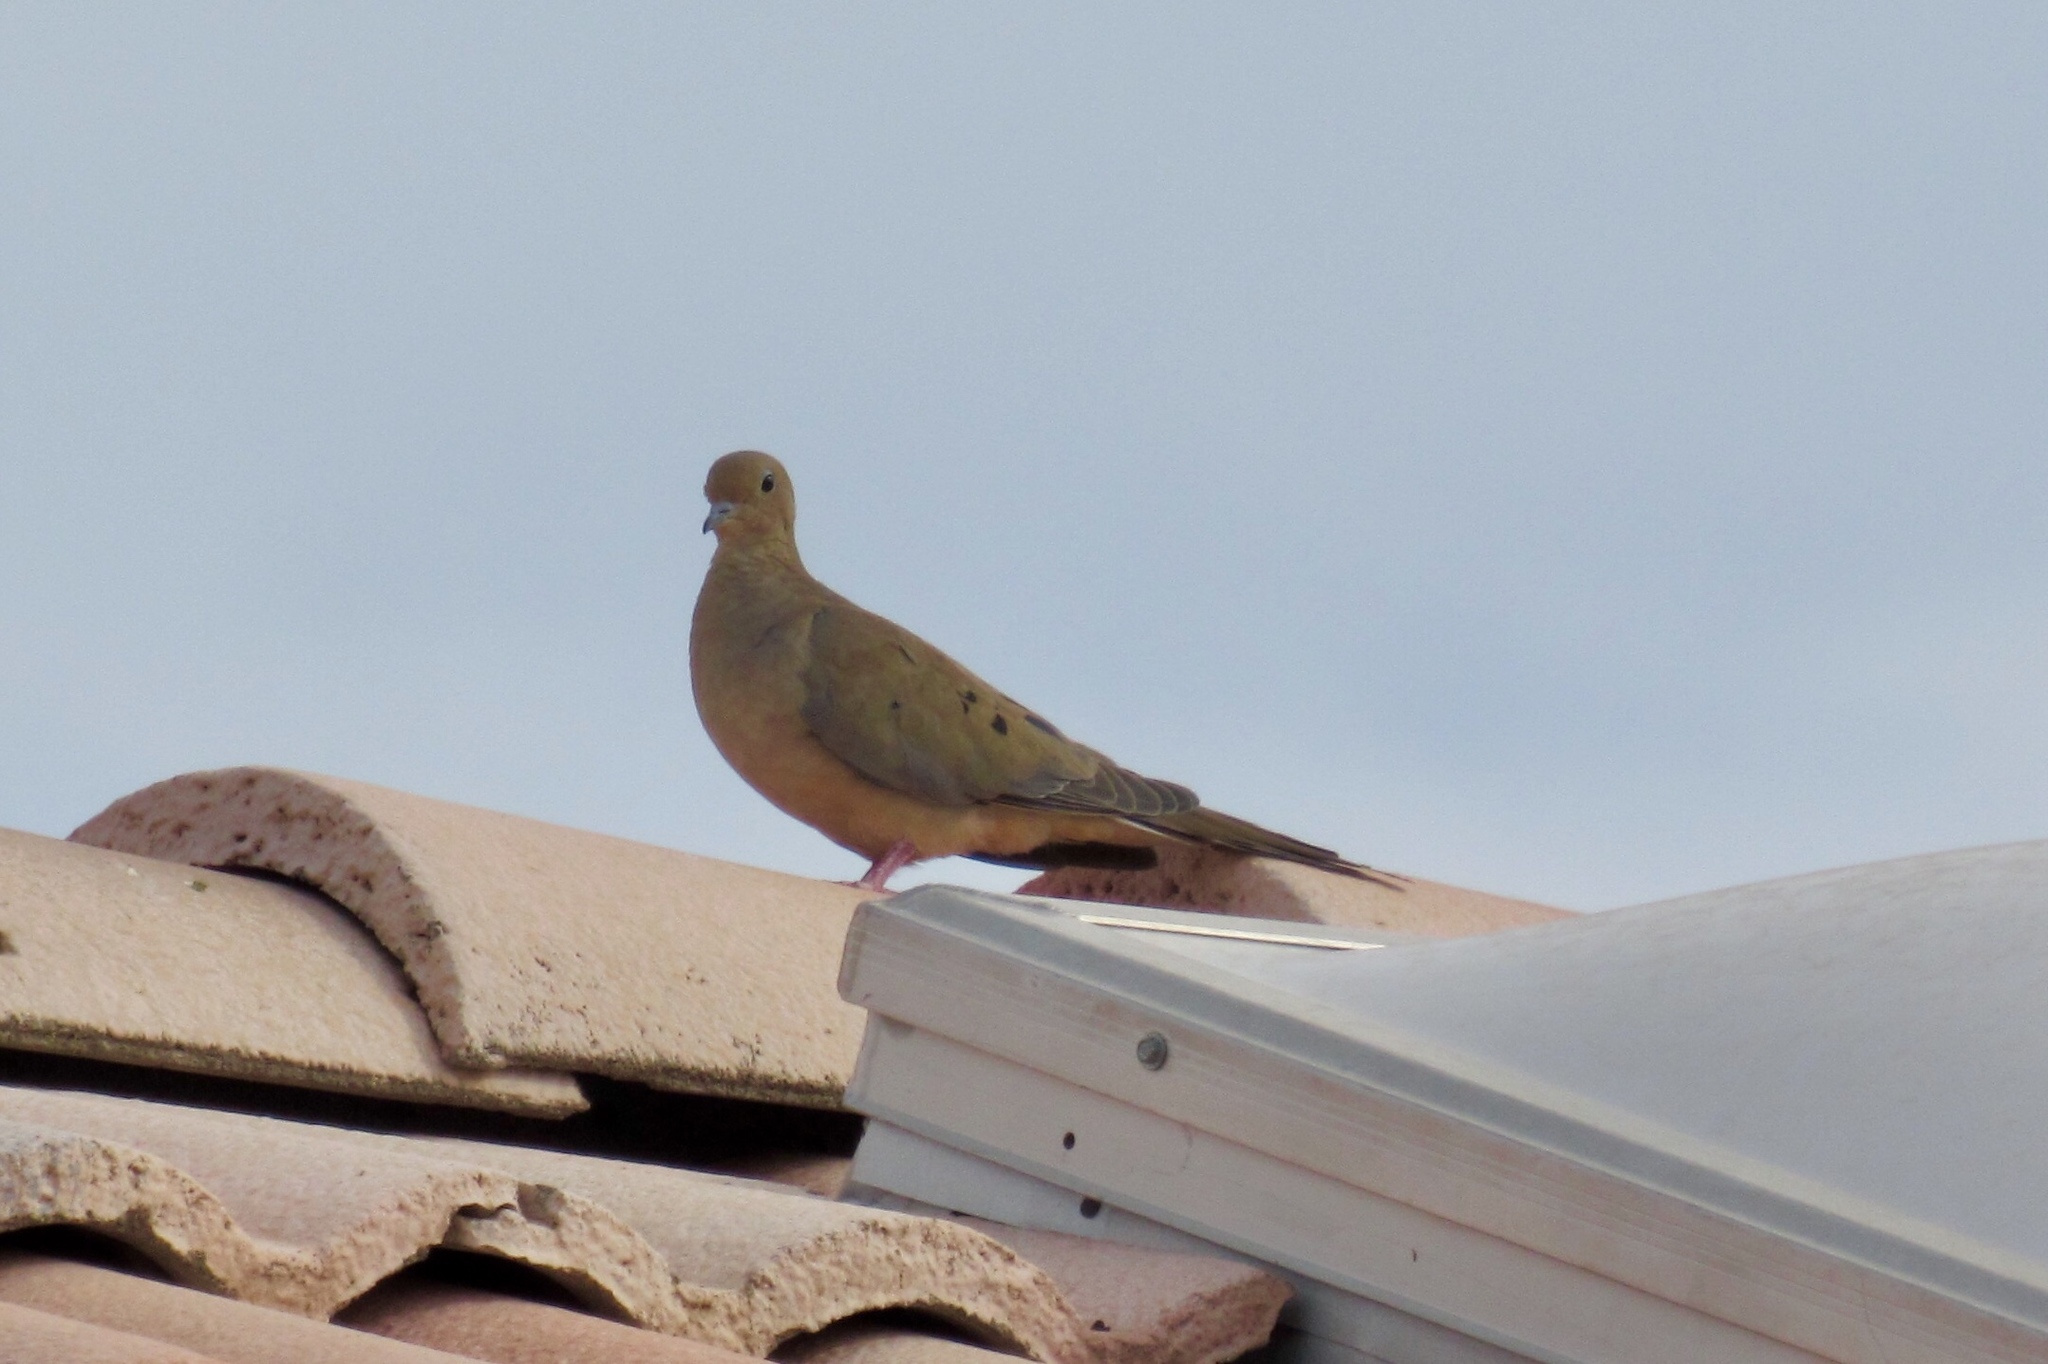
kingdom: Animalia
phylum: Chordata
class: Aves
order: Columbiformes
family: Columbidae
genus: Zenaida
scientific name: Zenaida macroura
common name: Mourning dove
